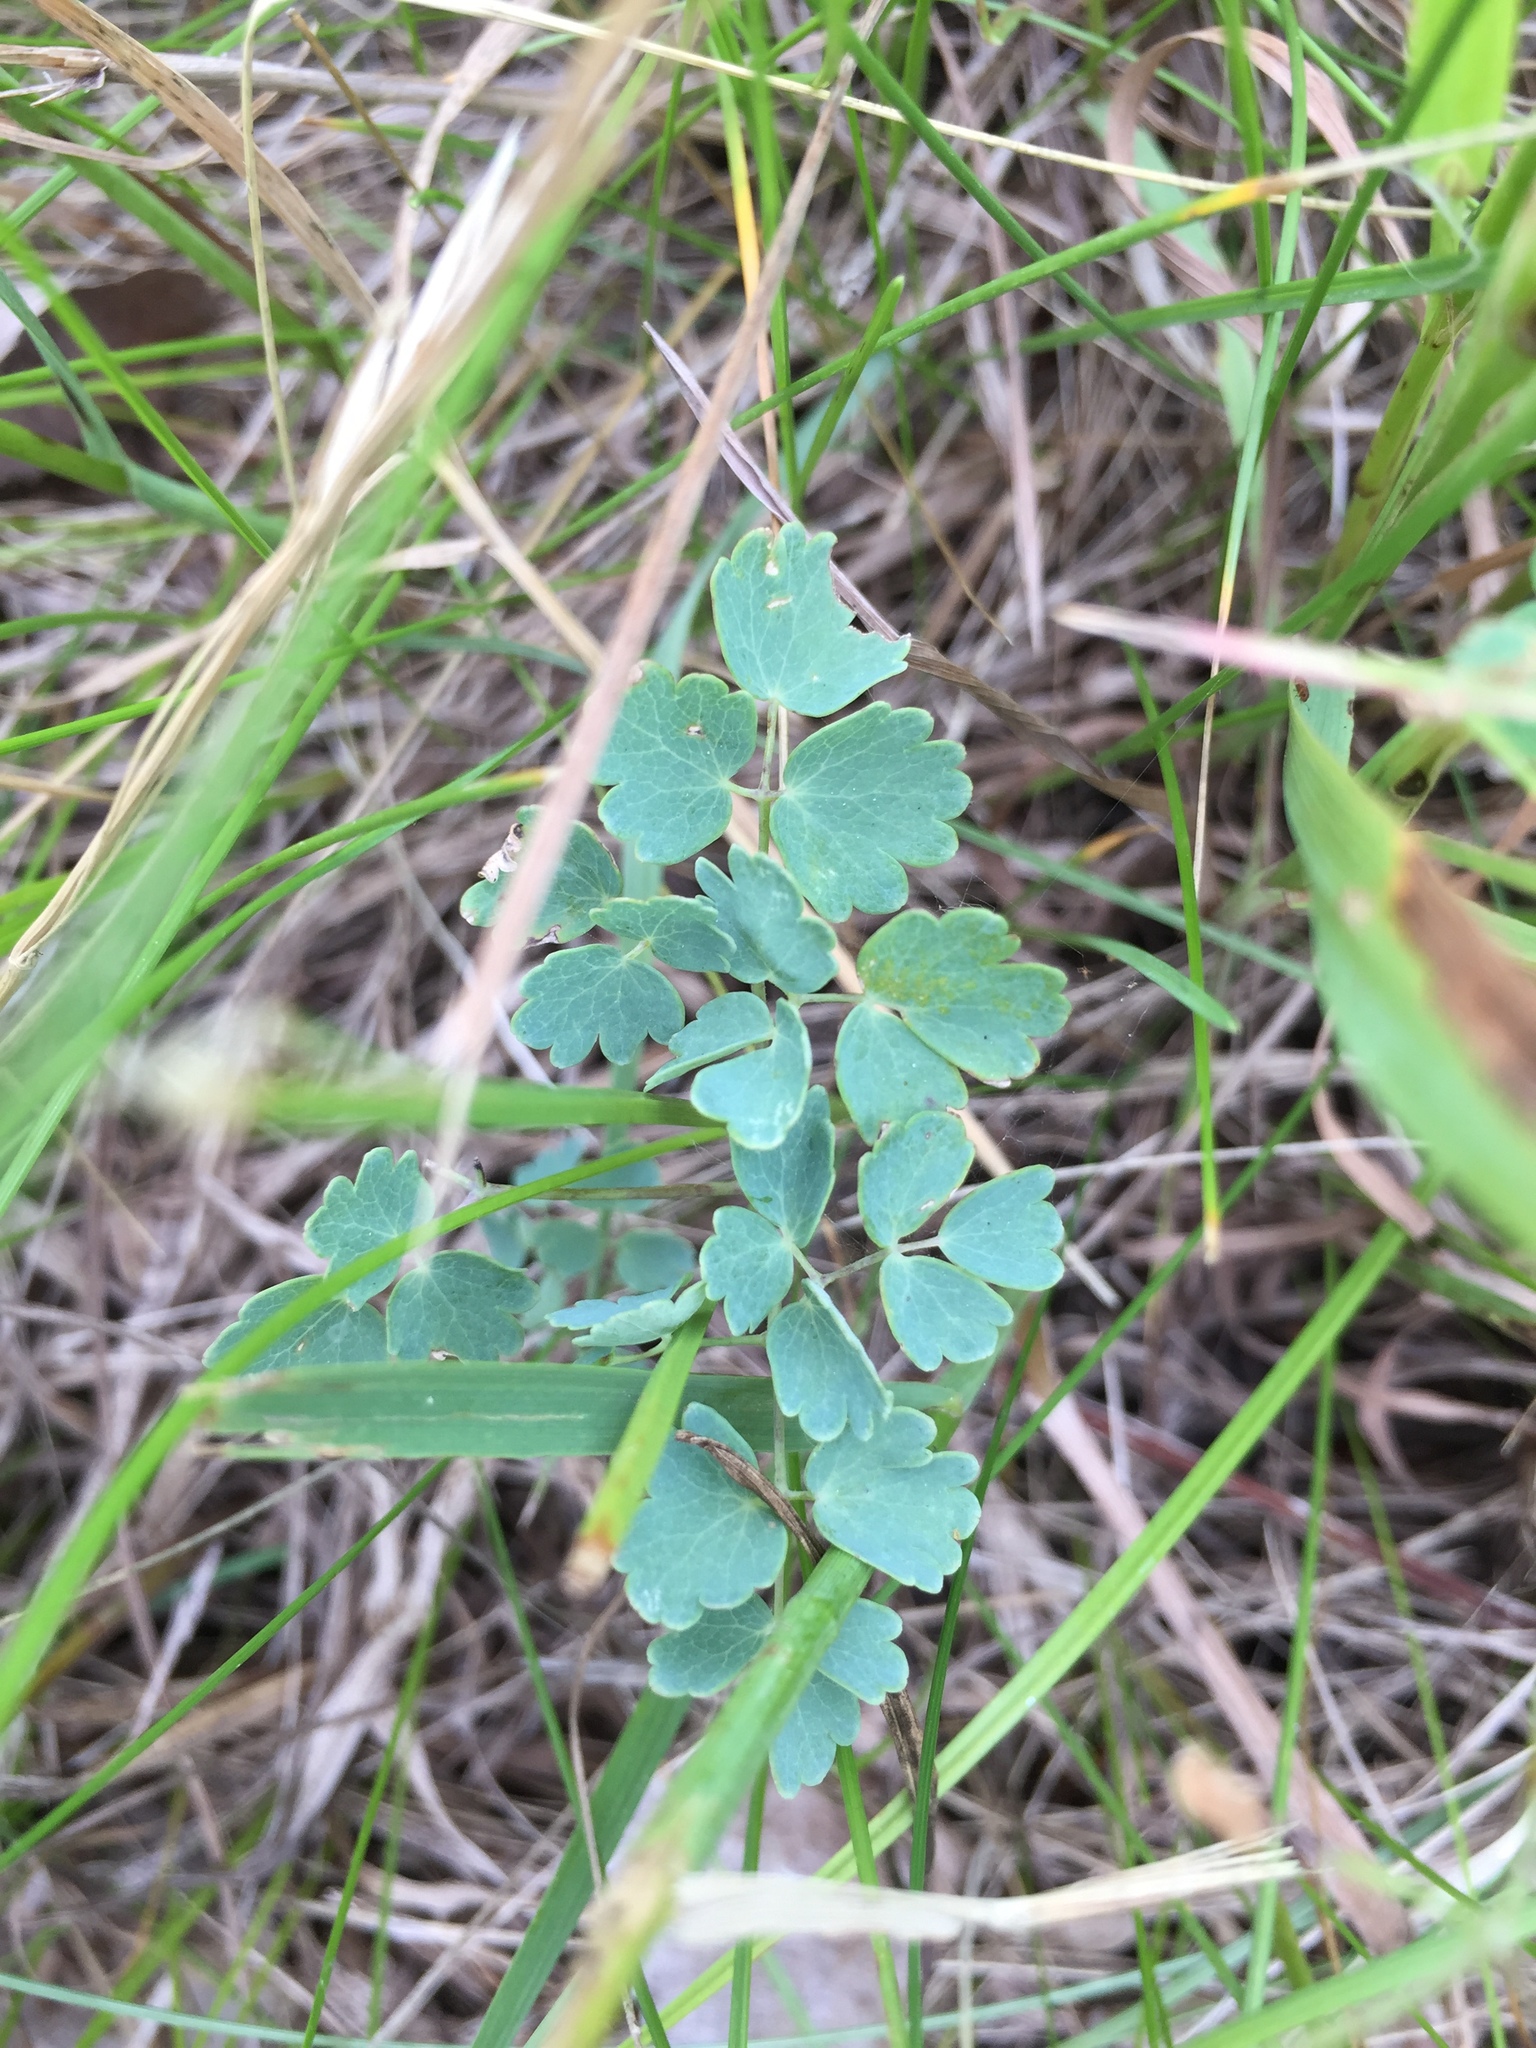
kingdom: Plantae
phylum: Tracheophyta
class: Magnoliopsida
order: Ranunculales
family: Ranunculaceae
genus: Thalictrum
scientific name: Thalictrum venulosum
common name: Early meadow-rue
